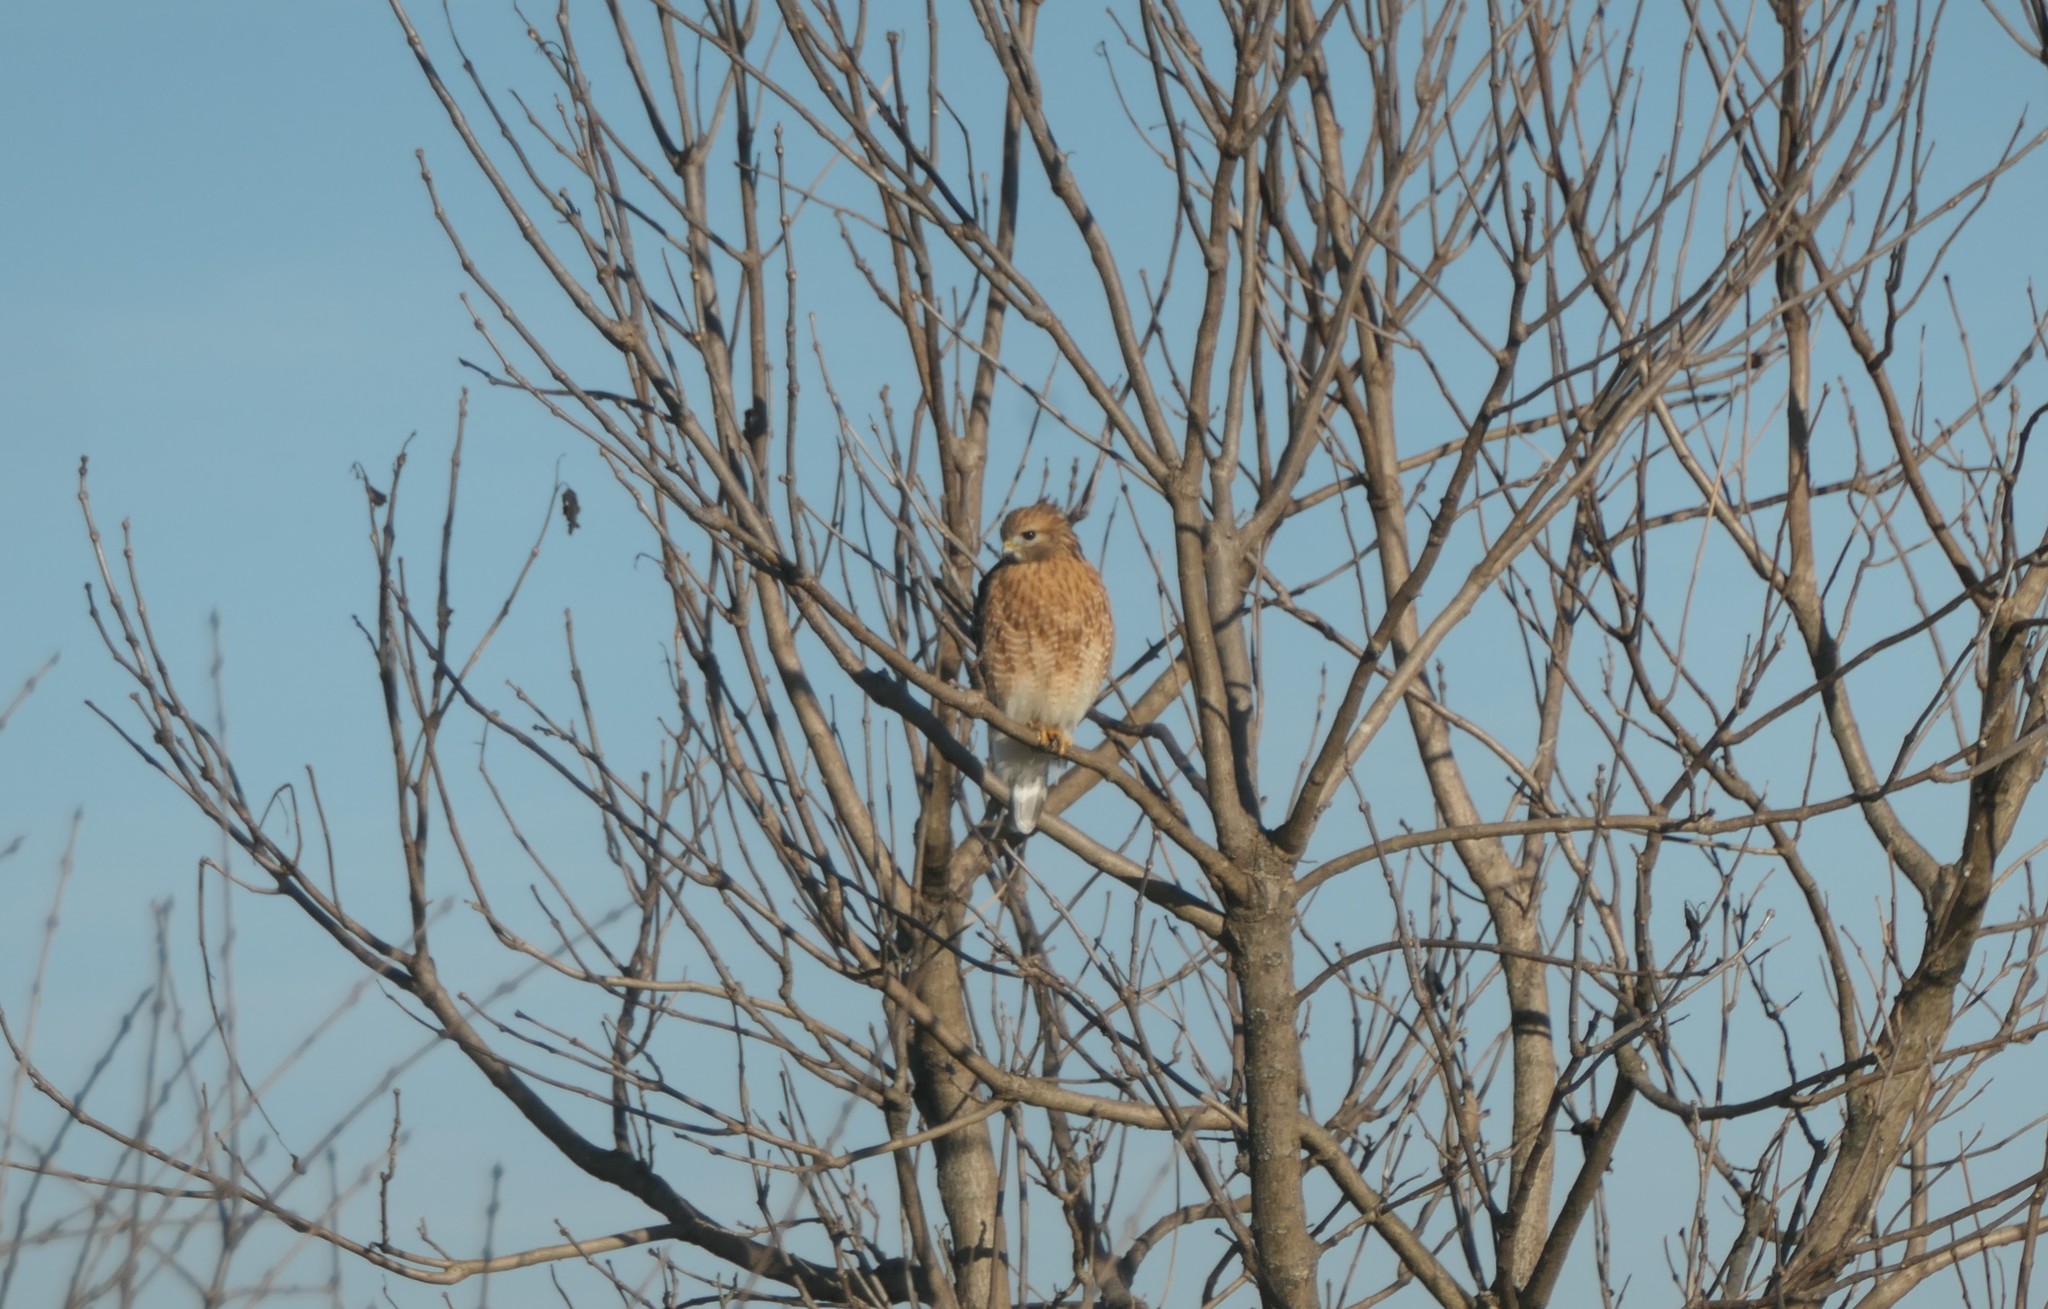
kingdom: Animalia
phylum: Chordata
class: Aves
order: Accipitriformes
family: Accipitridae
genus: Buteo
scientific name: Buteo lineatus
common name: Red-shouldered hawk
